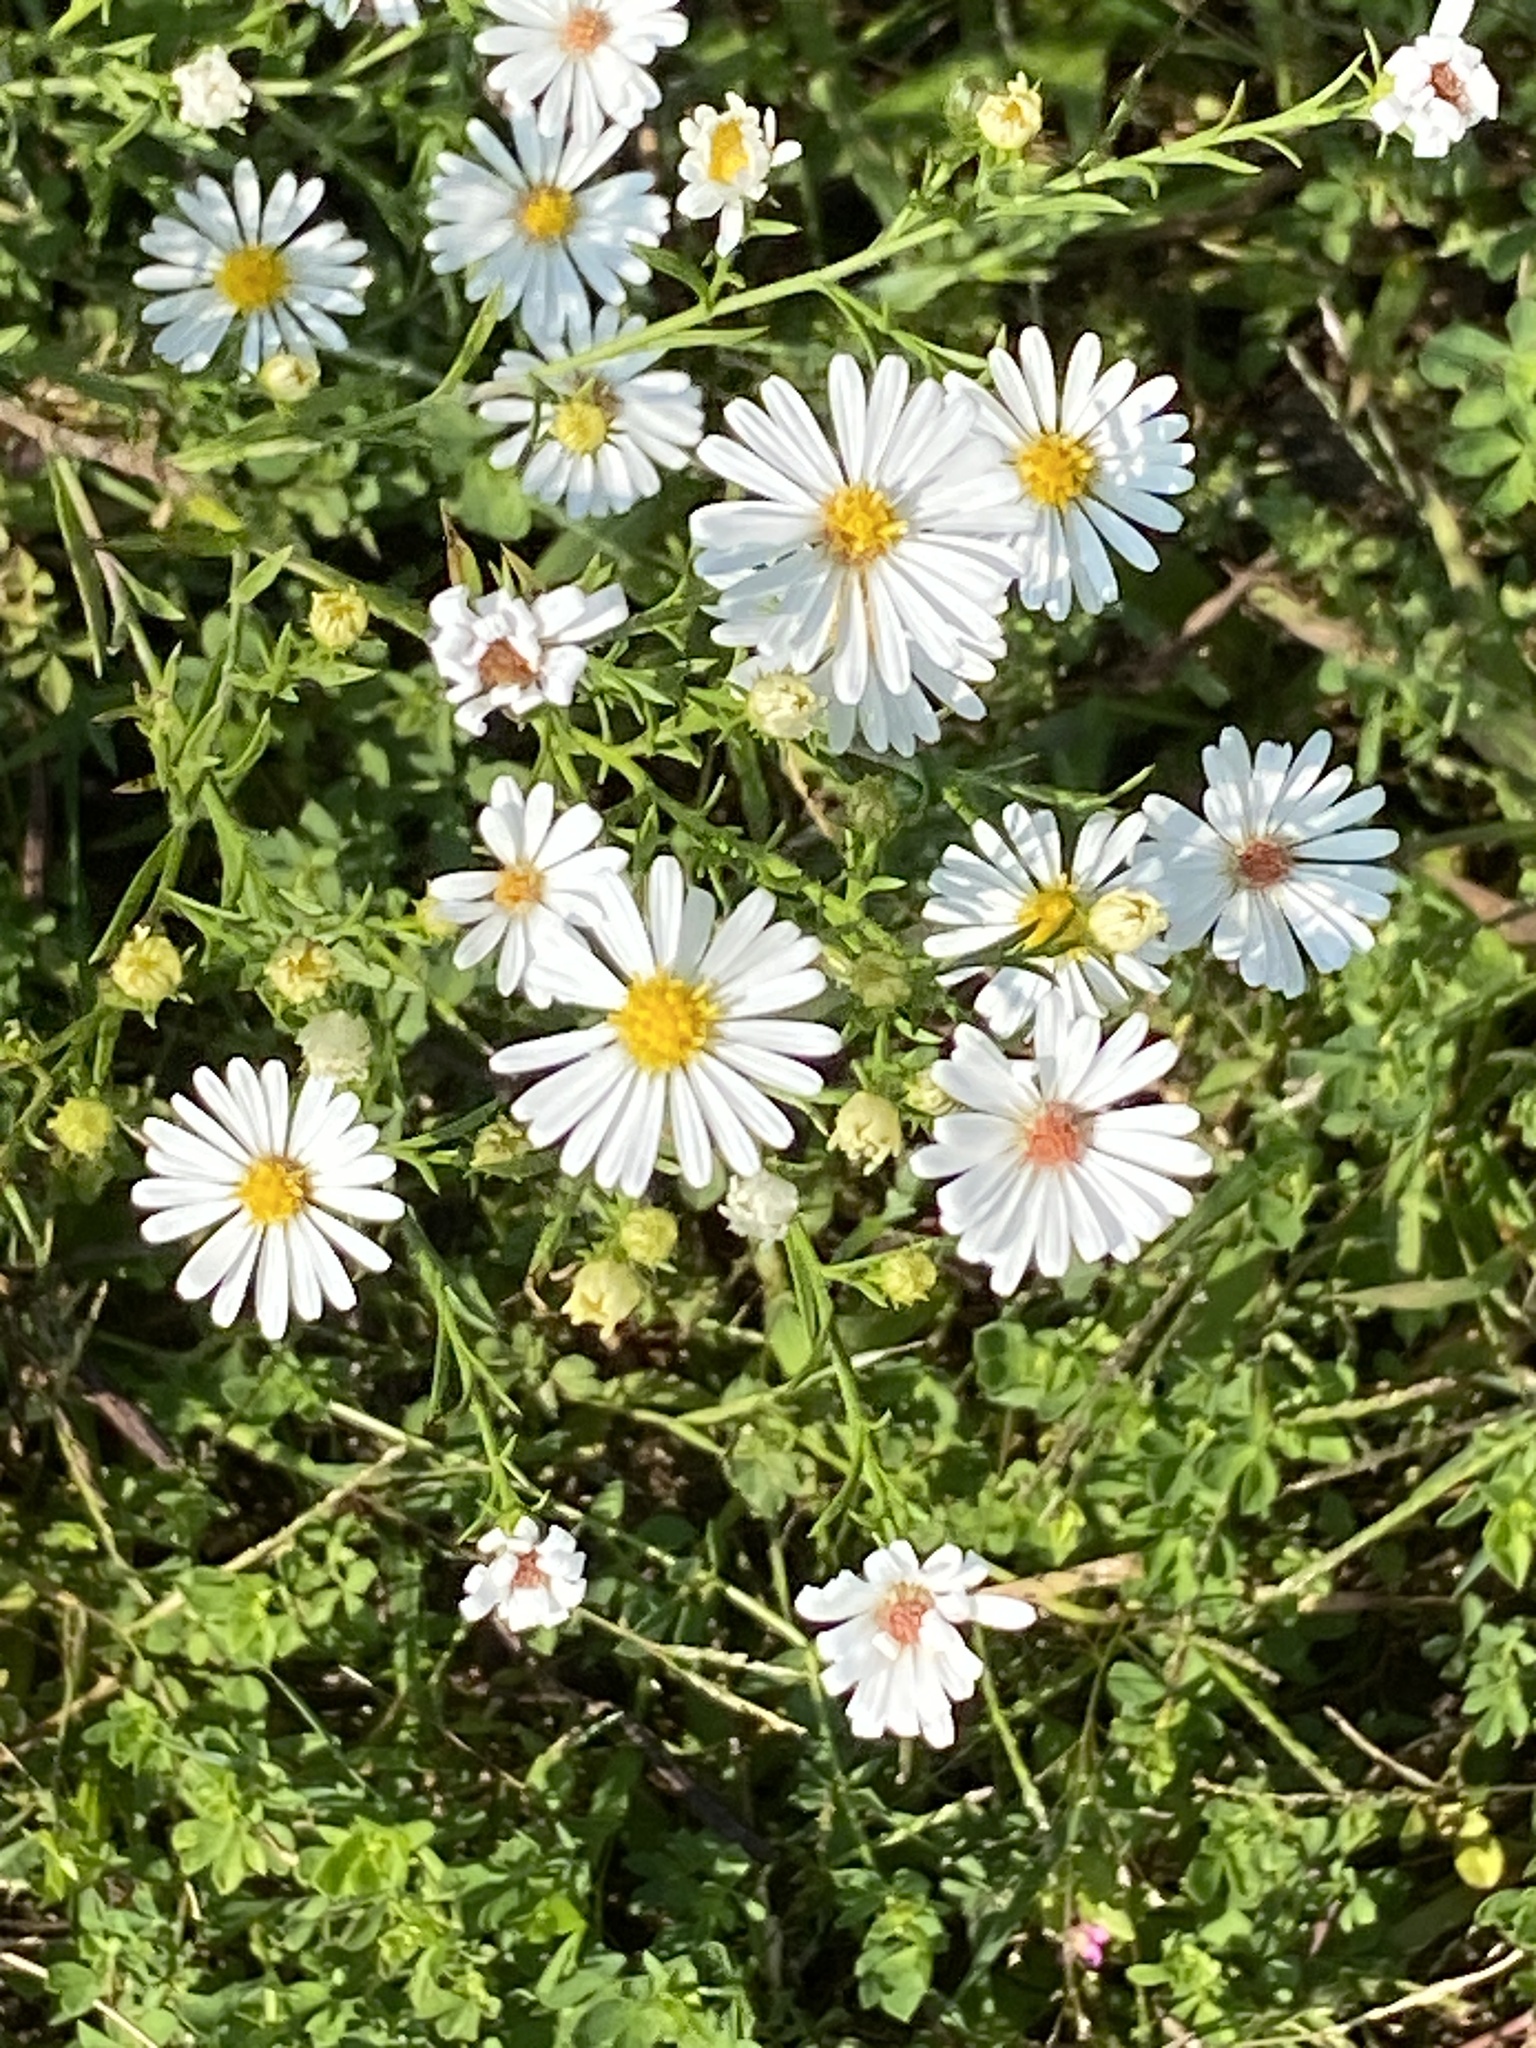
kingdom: Plantae
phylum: Tracheophyta
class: Magnoliopsida
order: Asterales
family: Asteraceae
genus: Symphyotrichum
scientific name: Symphyotrichum pilosum
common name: Awl aster
